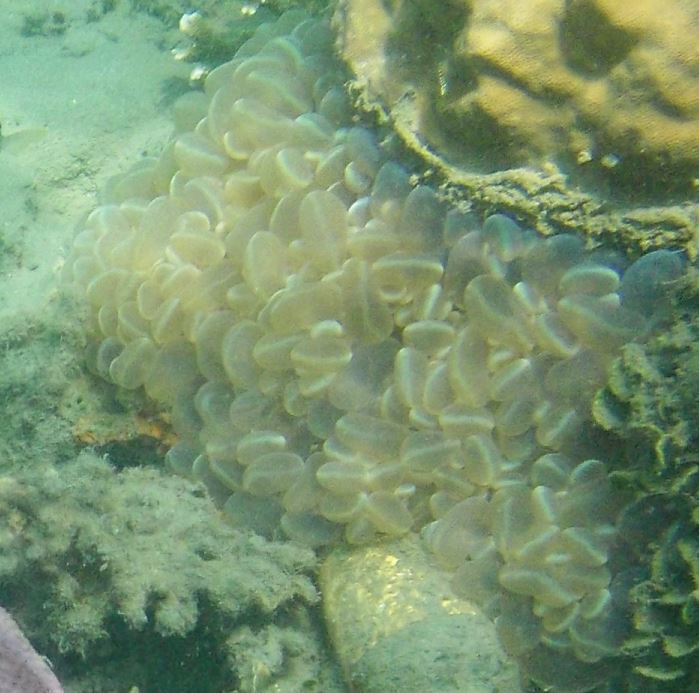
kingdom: Animalia
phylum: Cnidaria
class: Anthozoa
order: Scleractinia
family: Plerogyridae
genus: Plerogyra
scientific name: Plerogyra sinuosa
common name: Bubble coral
